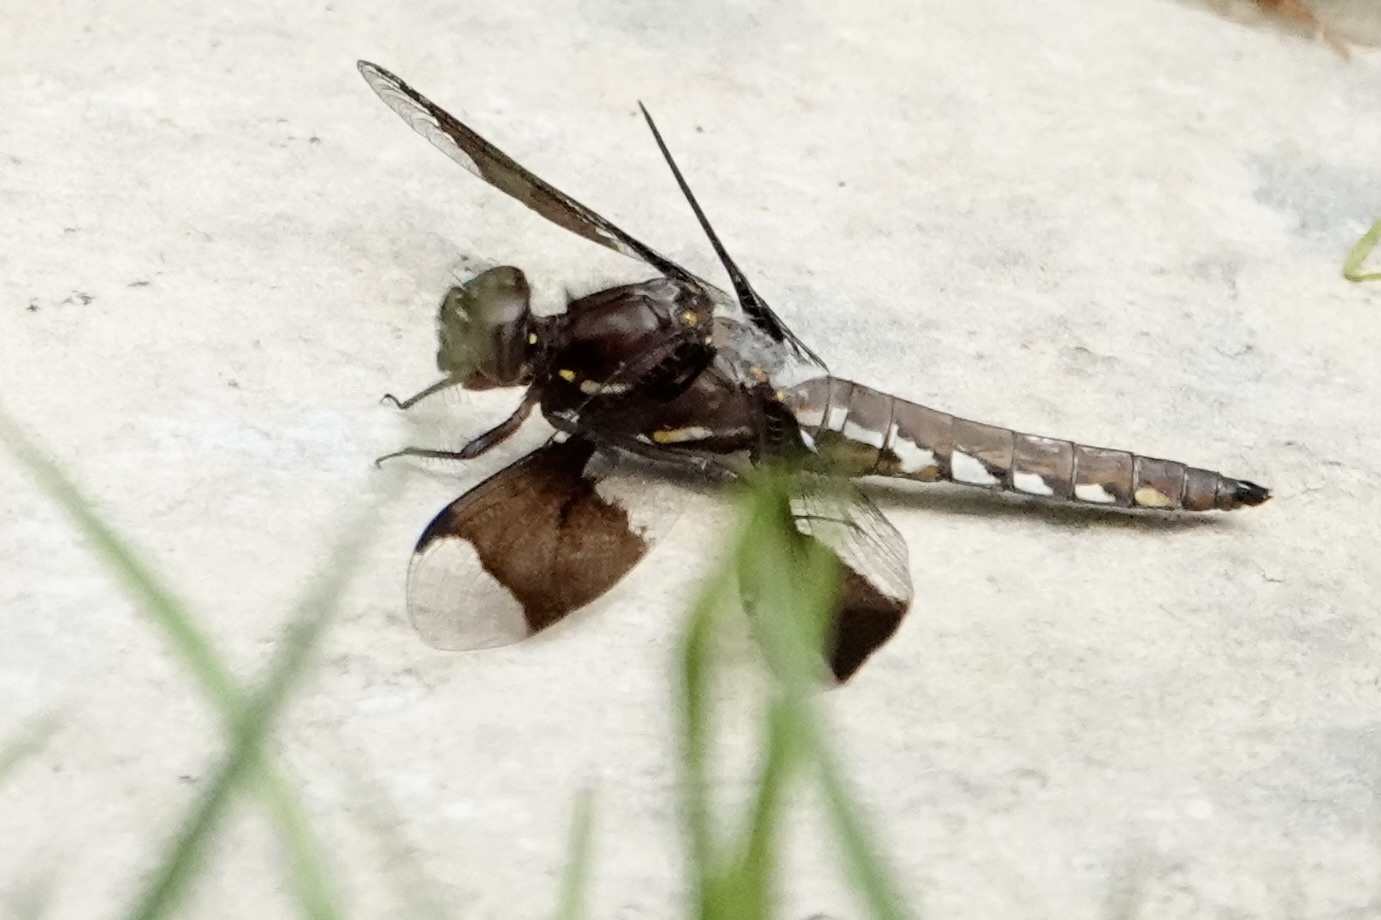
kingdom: Animalia
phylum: Arthropoda
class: Insecta
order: Odonata
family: Libellulidae
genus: Plathemis
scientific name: Plathemis lydia
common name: Common whitetail
